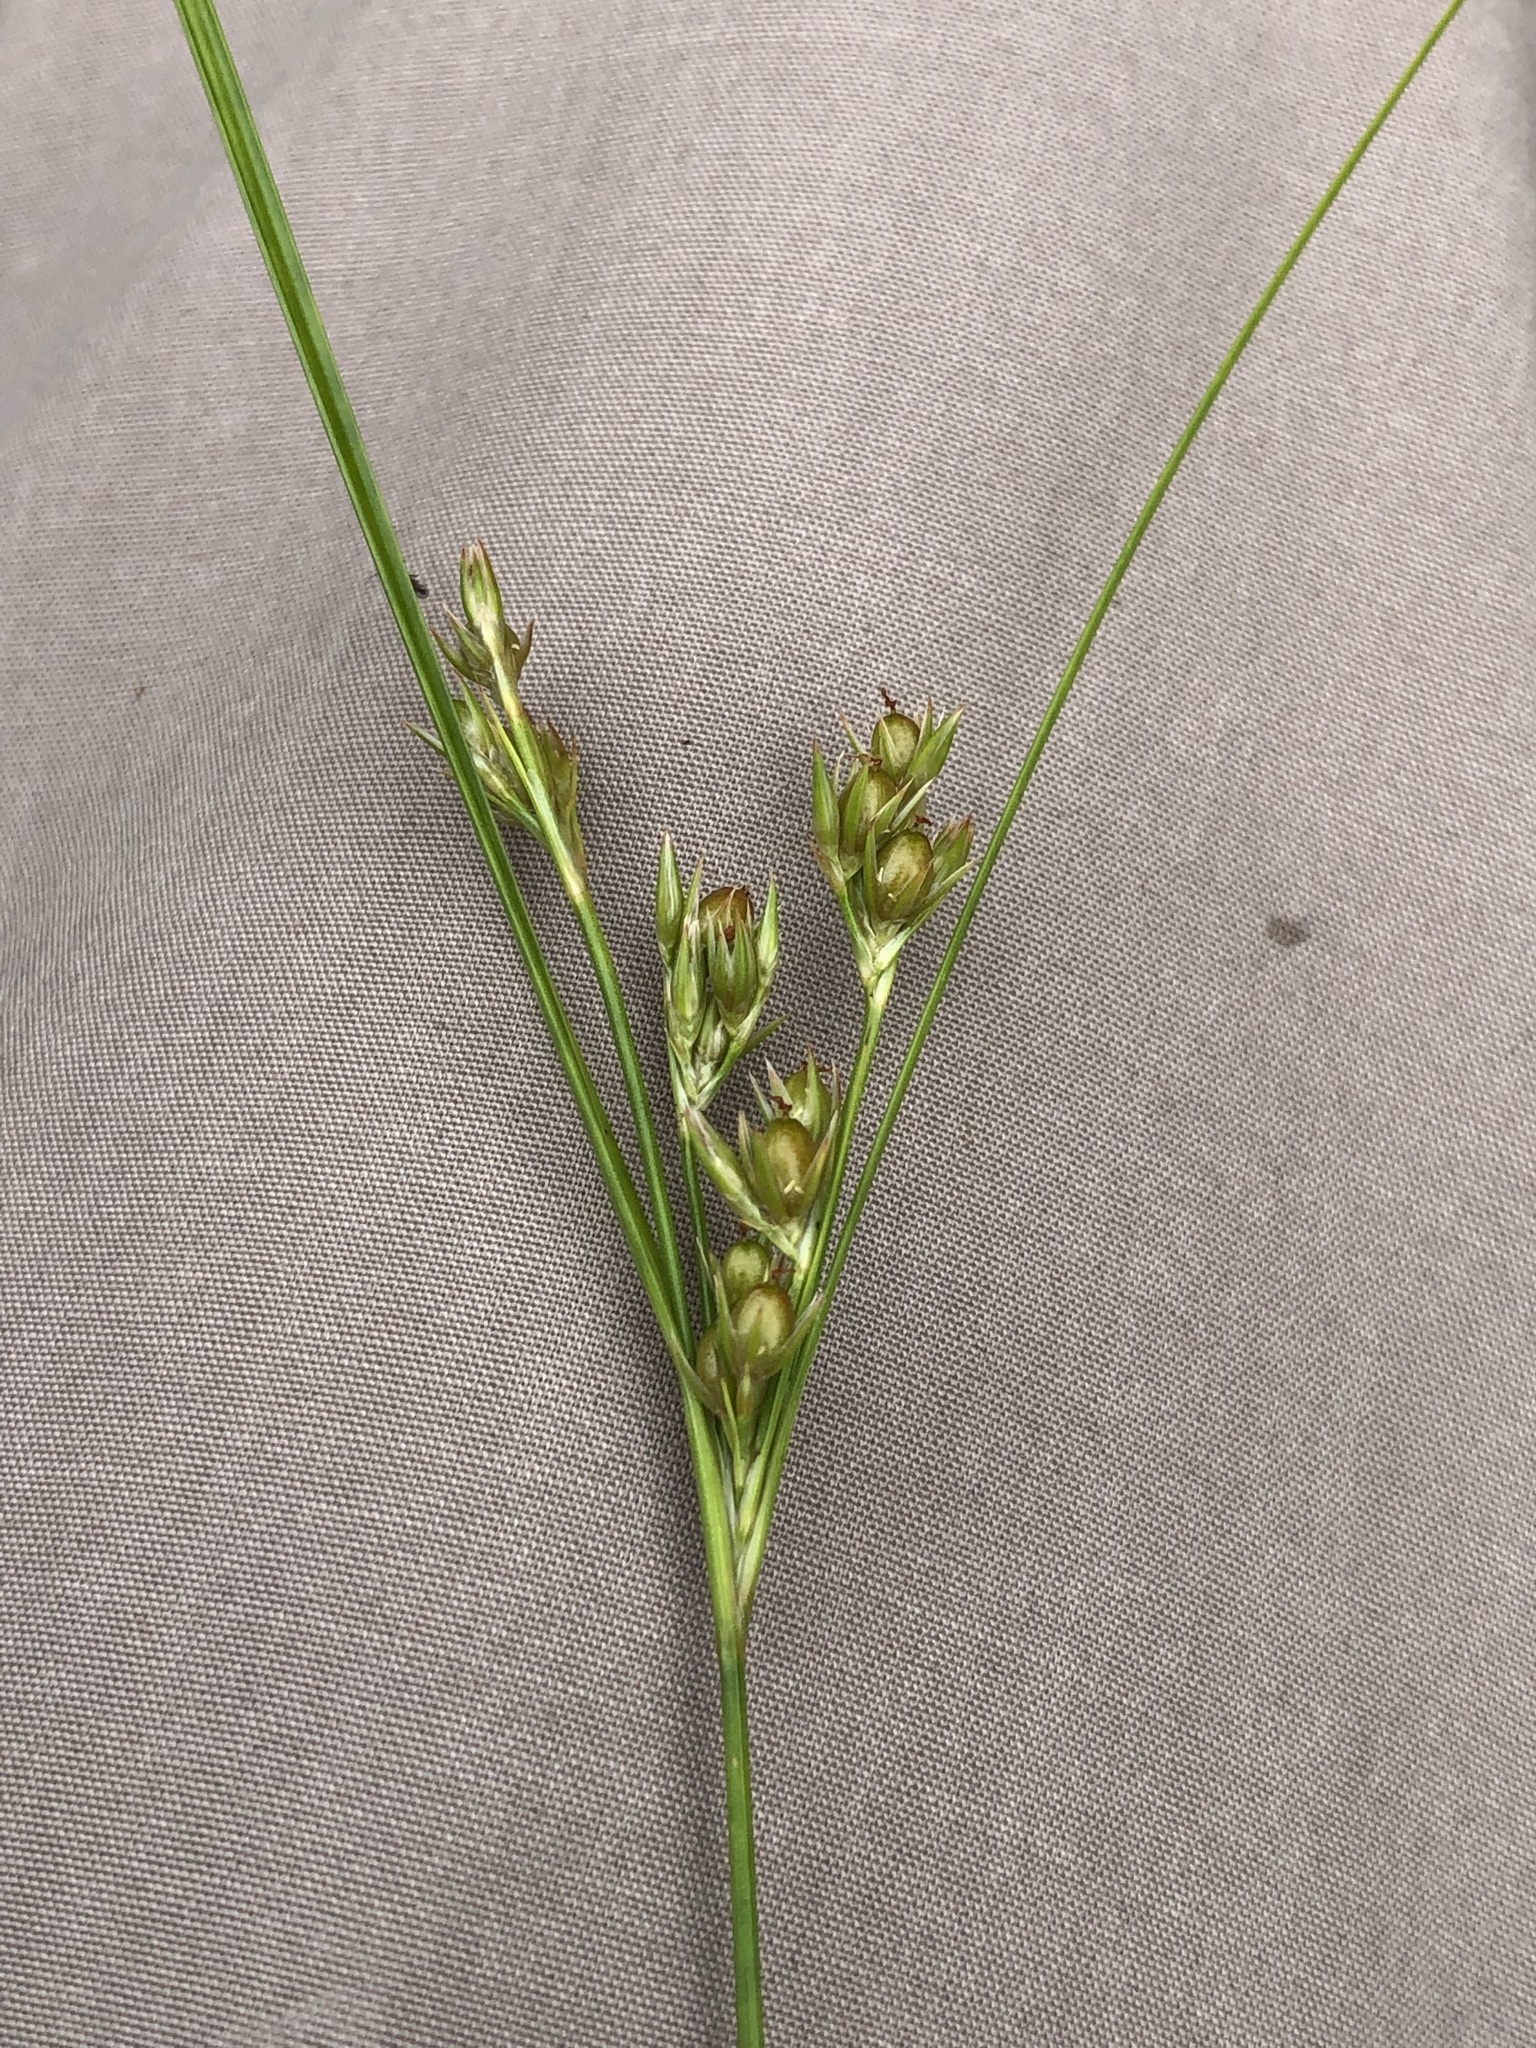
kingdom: Plantae
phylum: Tracheophyta
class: Liliopsida
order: Poales
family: Juncaceae
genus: Juncus
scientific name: Juncus tenuis
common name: Slender rush
